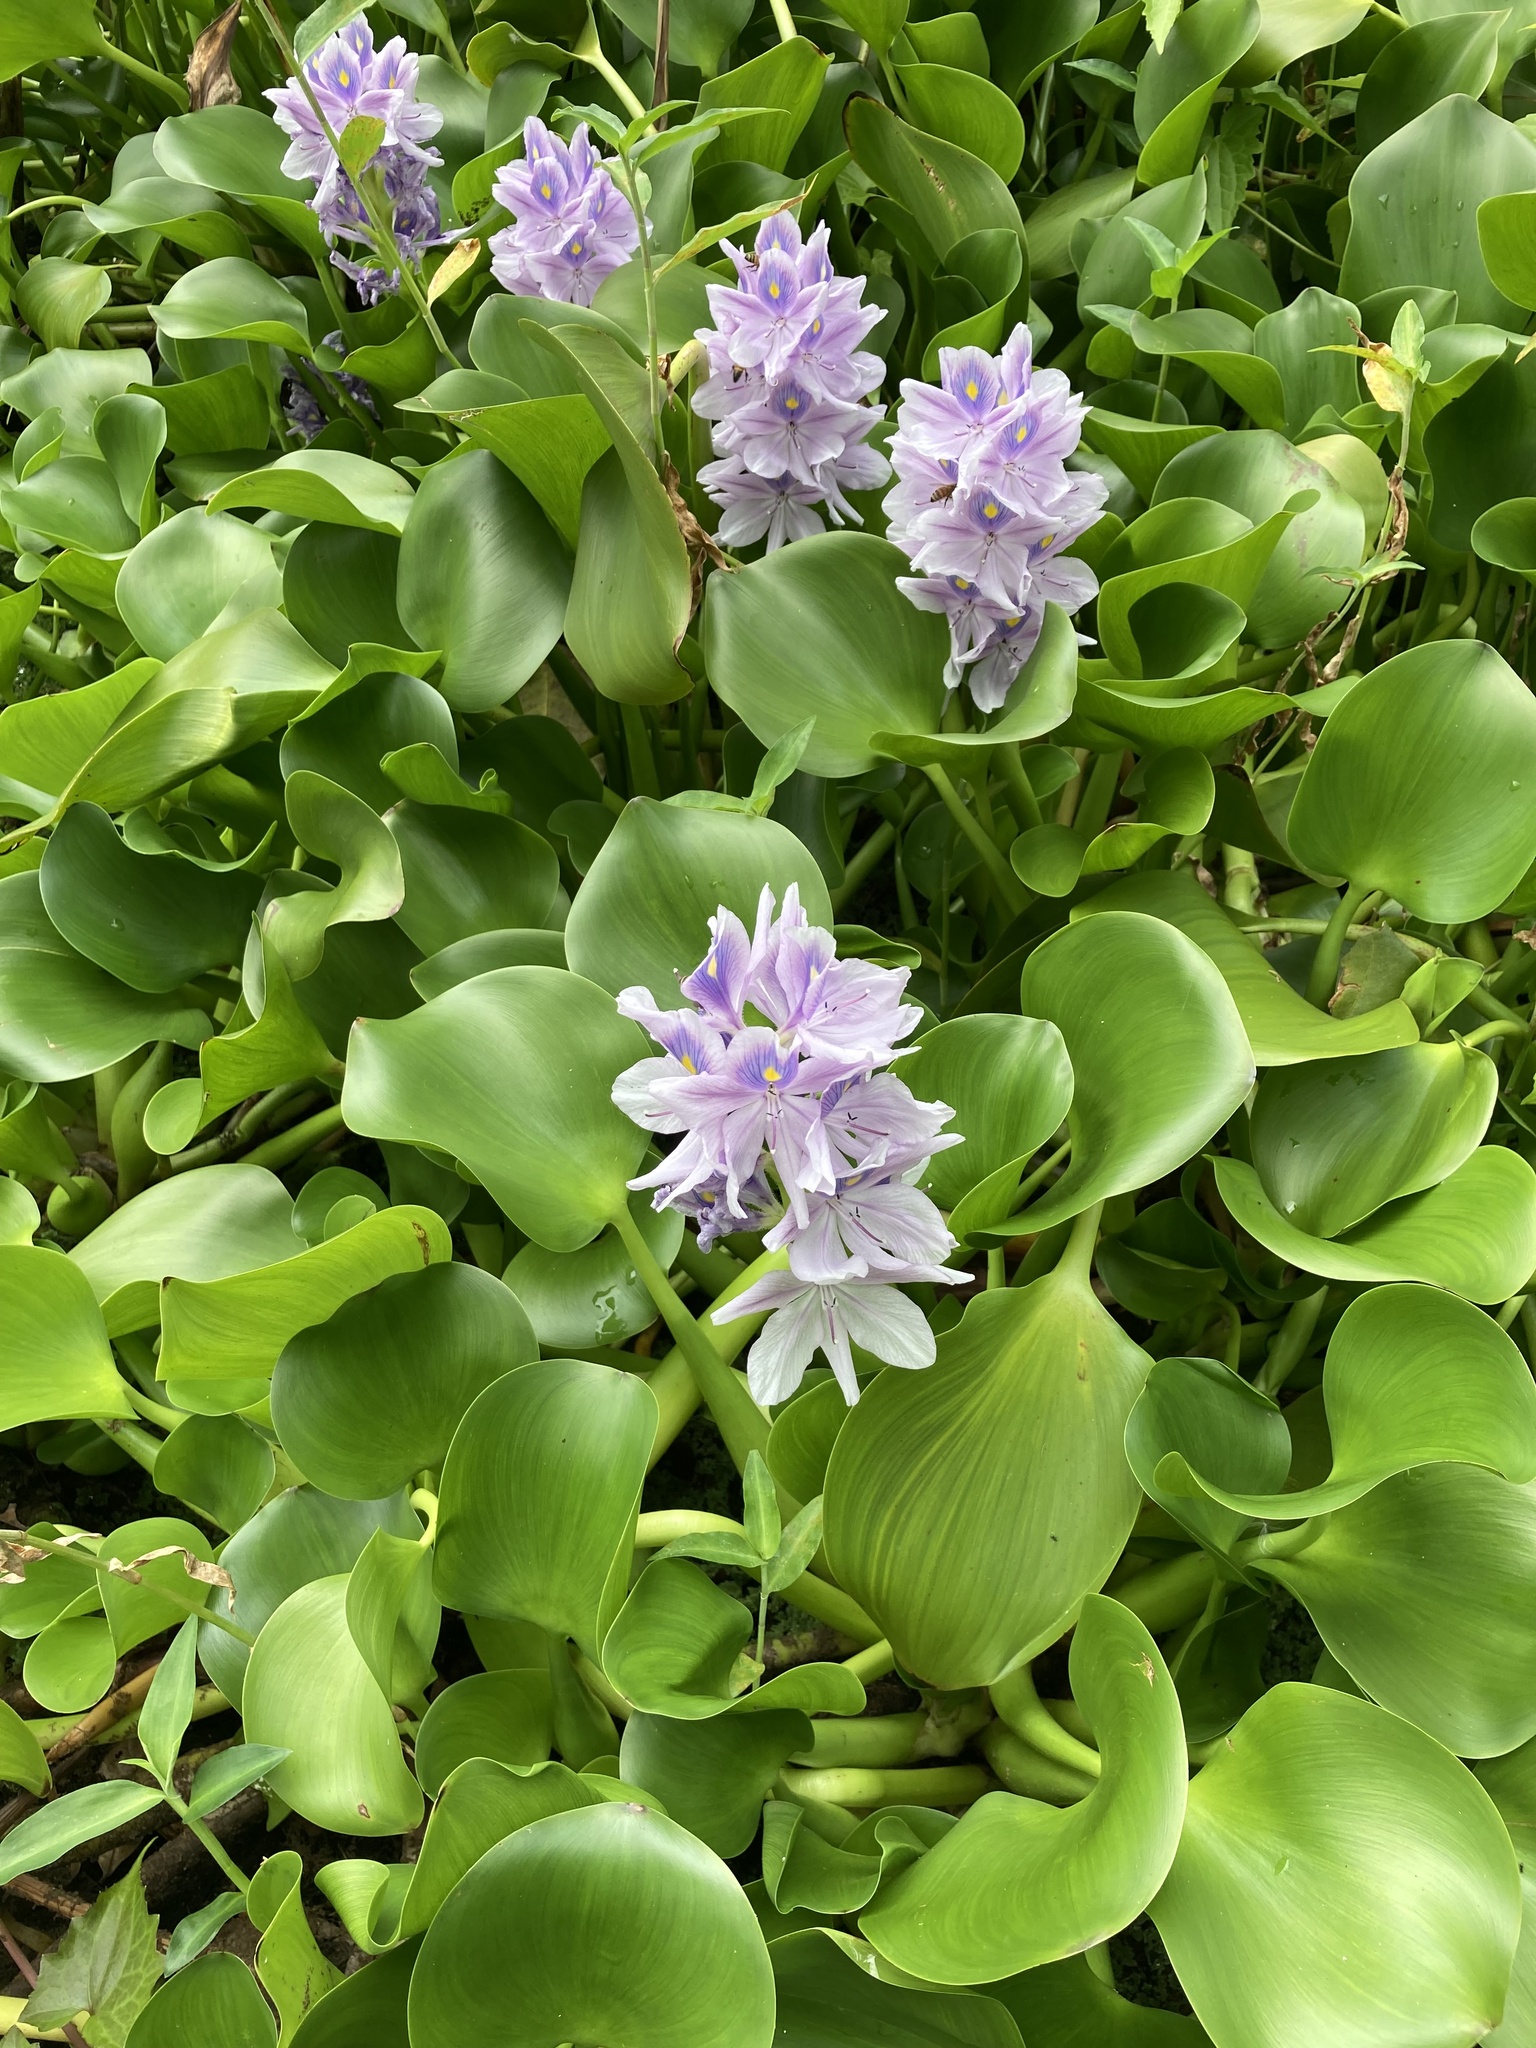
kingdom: Plantae
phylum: Tracheophyta
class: Liliopsida
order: Commelinales
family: Pontederiaceae
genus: Pontederia
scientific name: Pontederia crassipes
